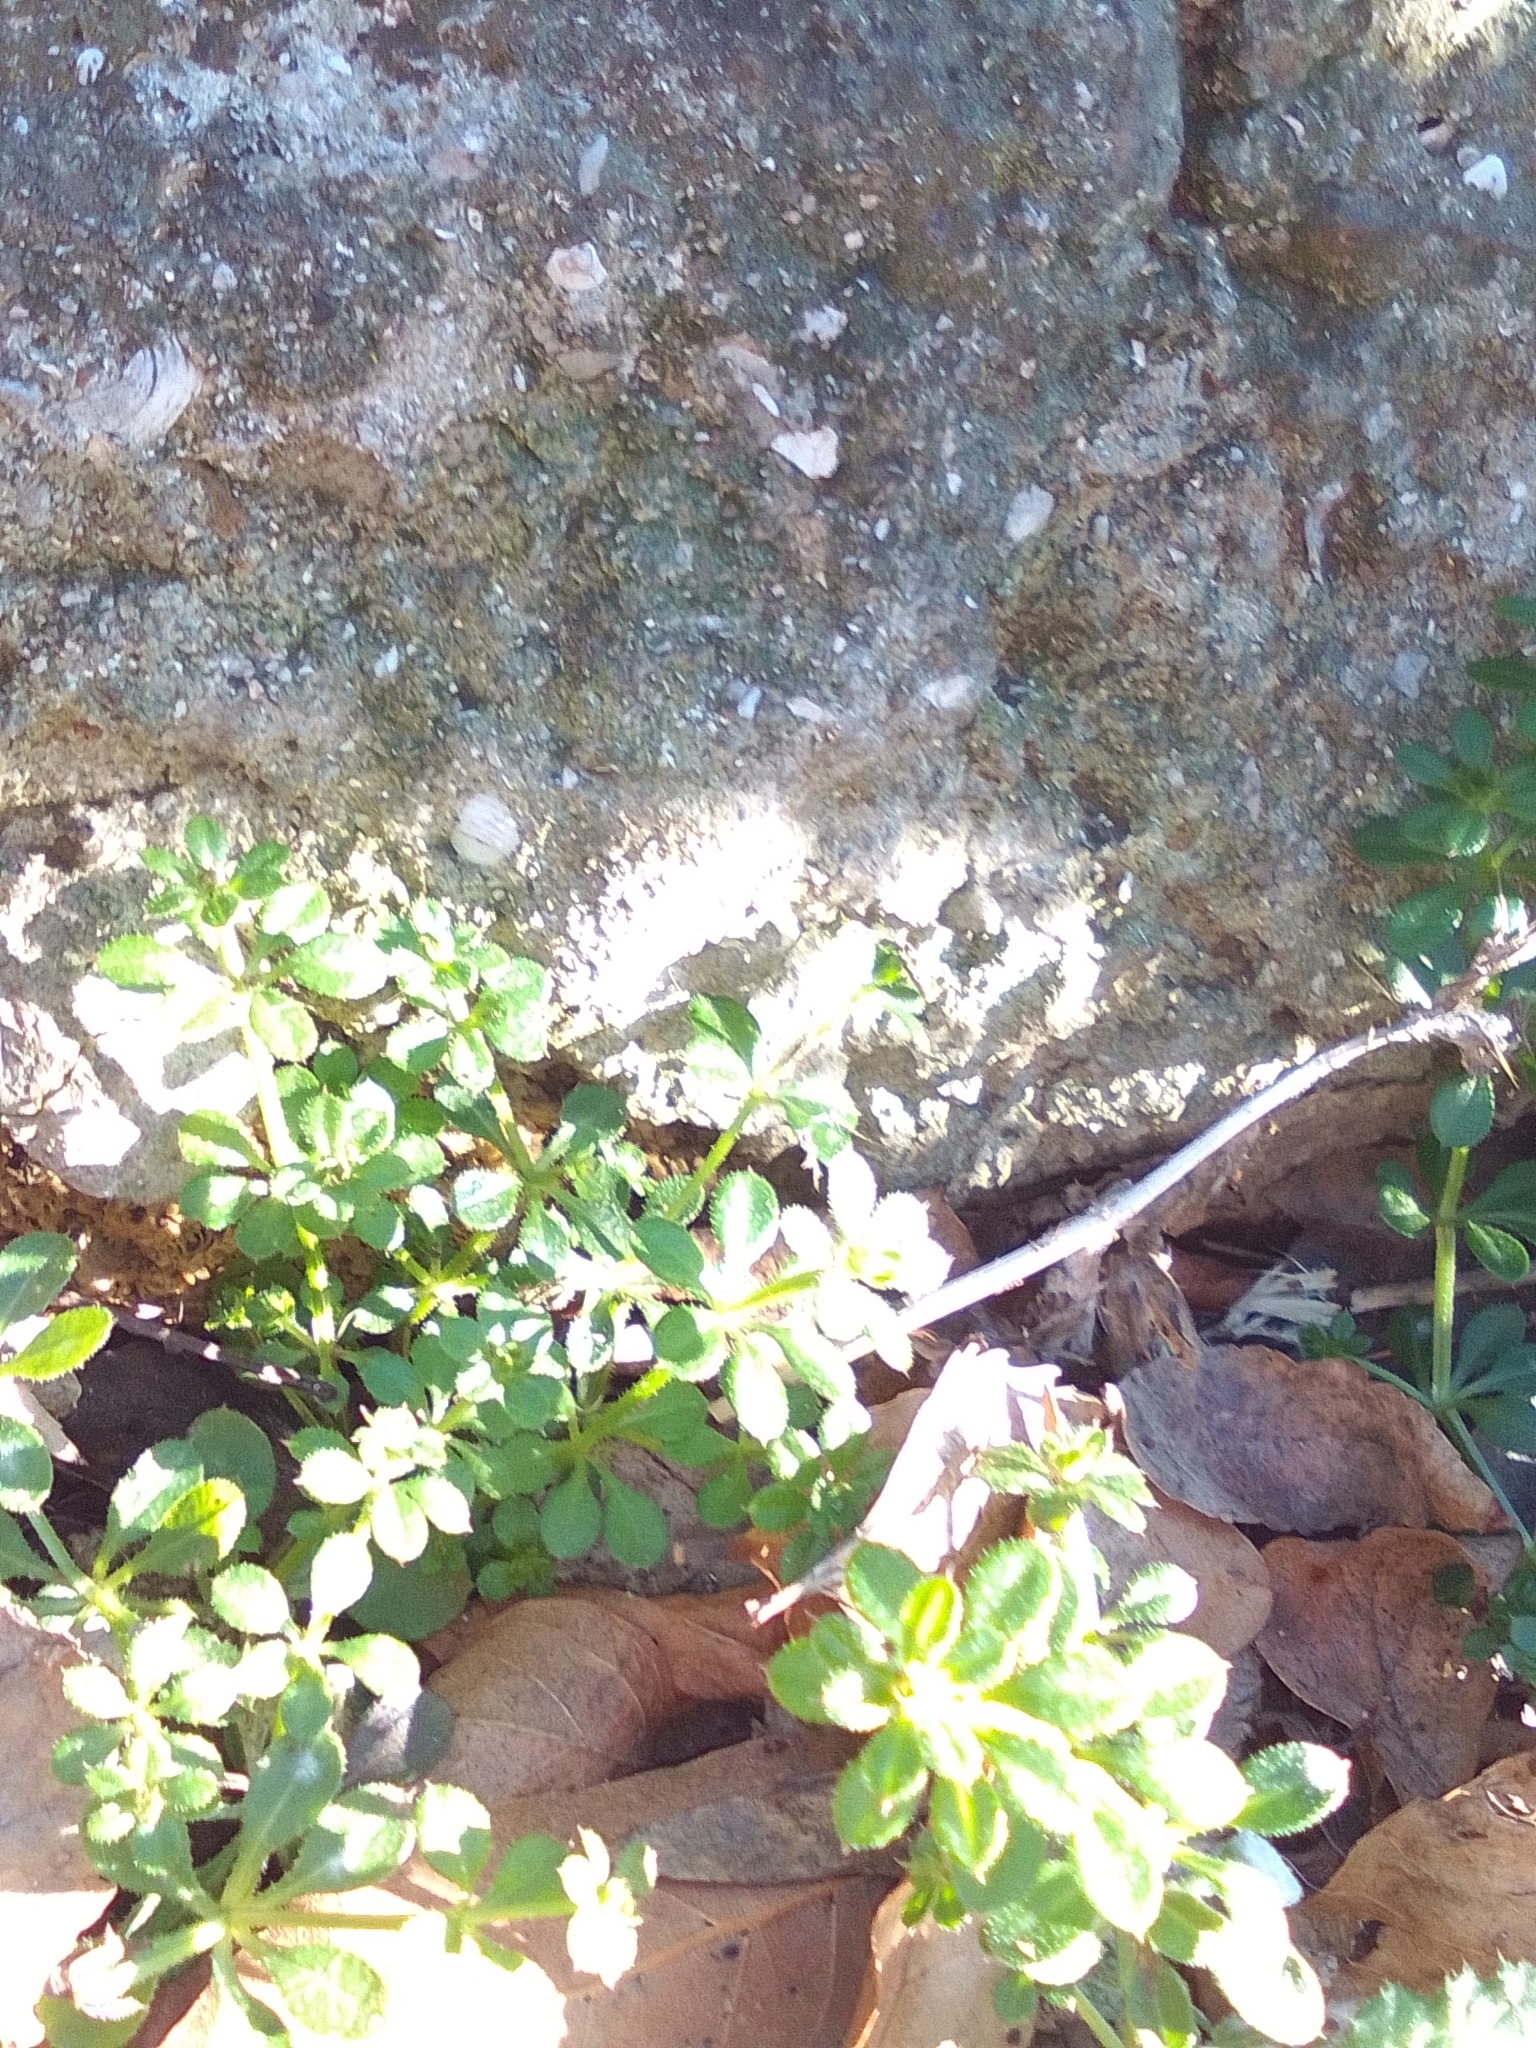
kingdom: Plantae
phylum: Tracheophyta
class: Magnoliopsida
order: Gentianales
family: Rubiaceae
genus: Galium
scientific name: Galium aparine
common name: Cleavers
